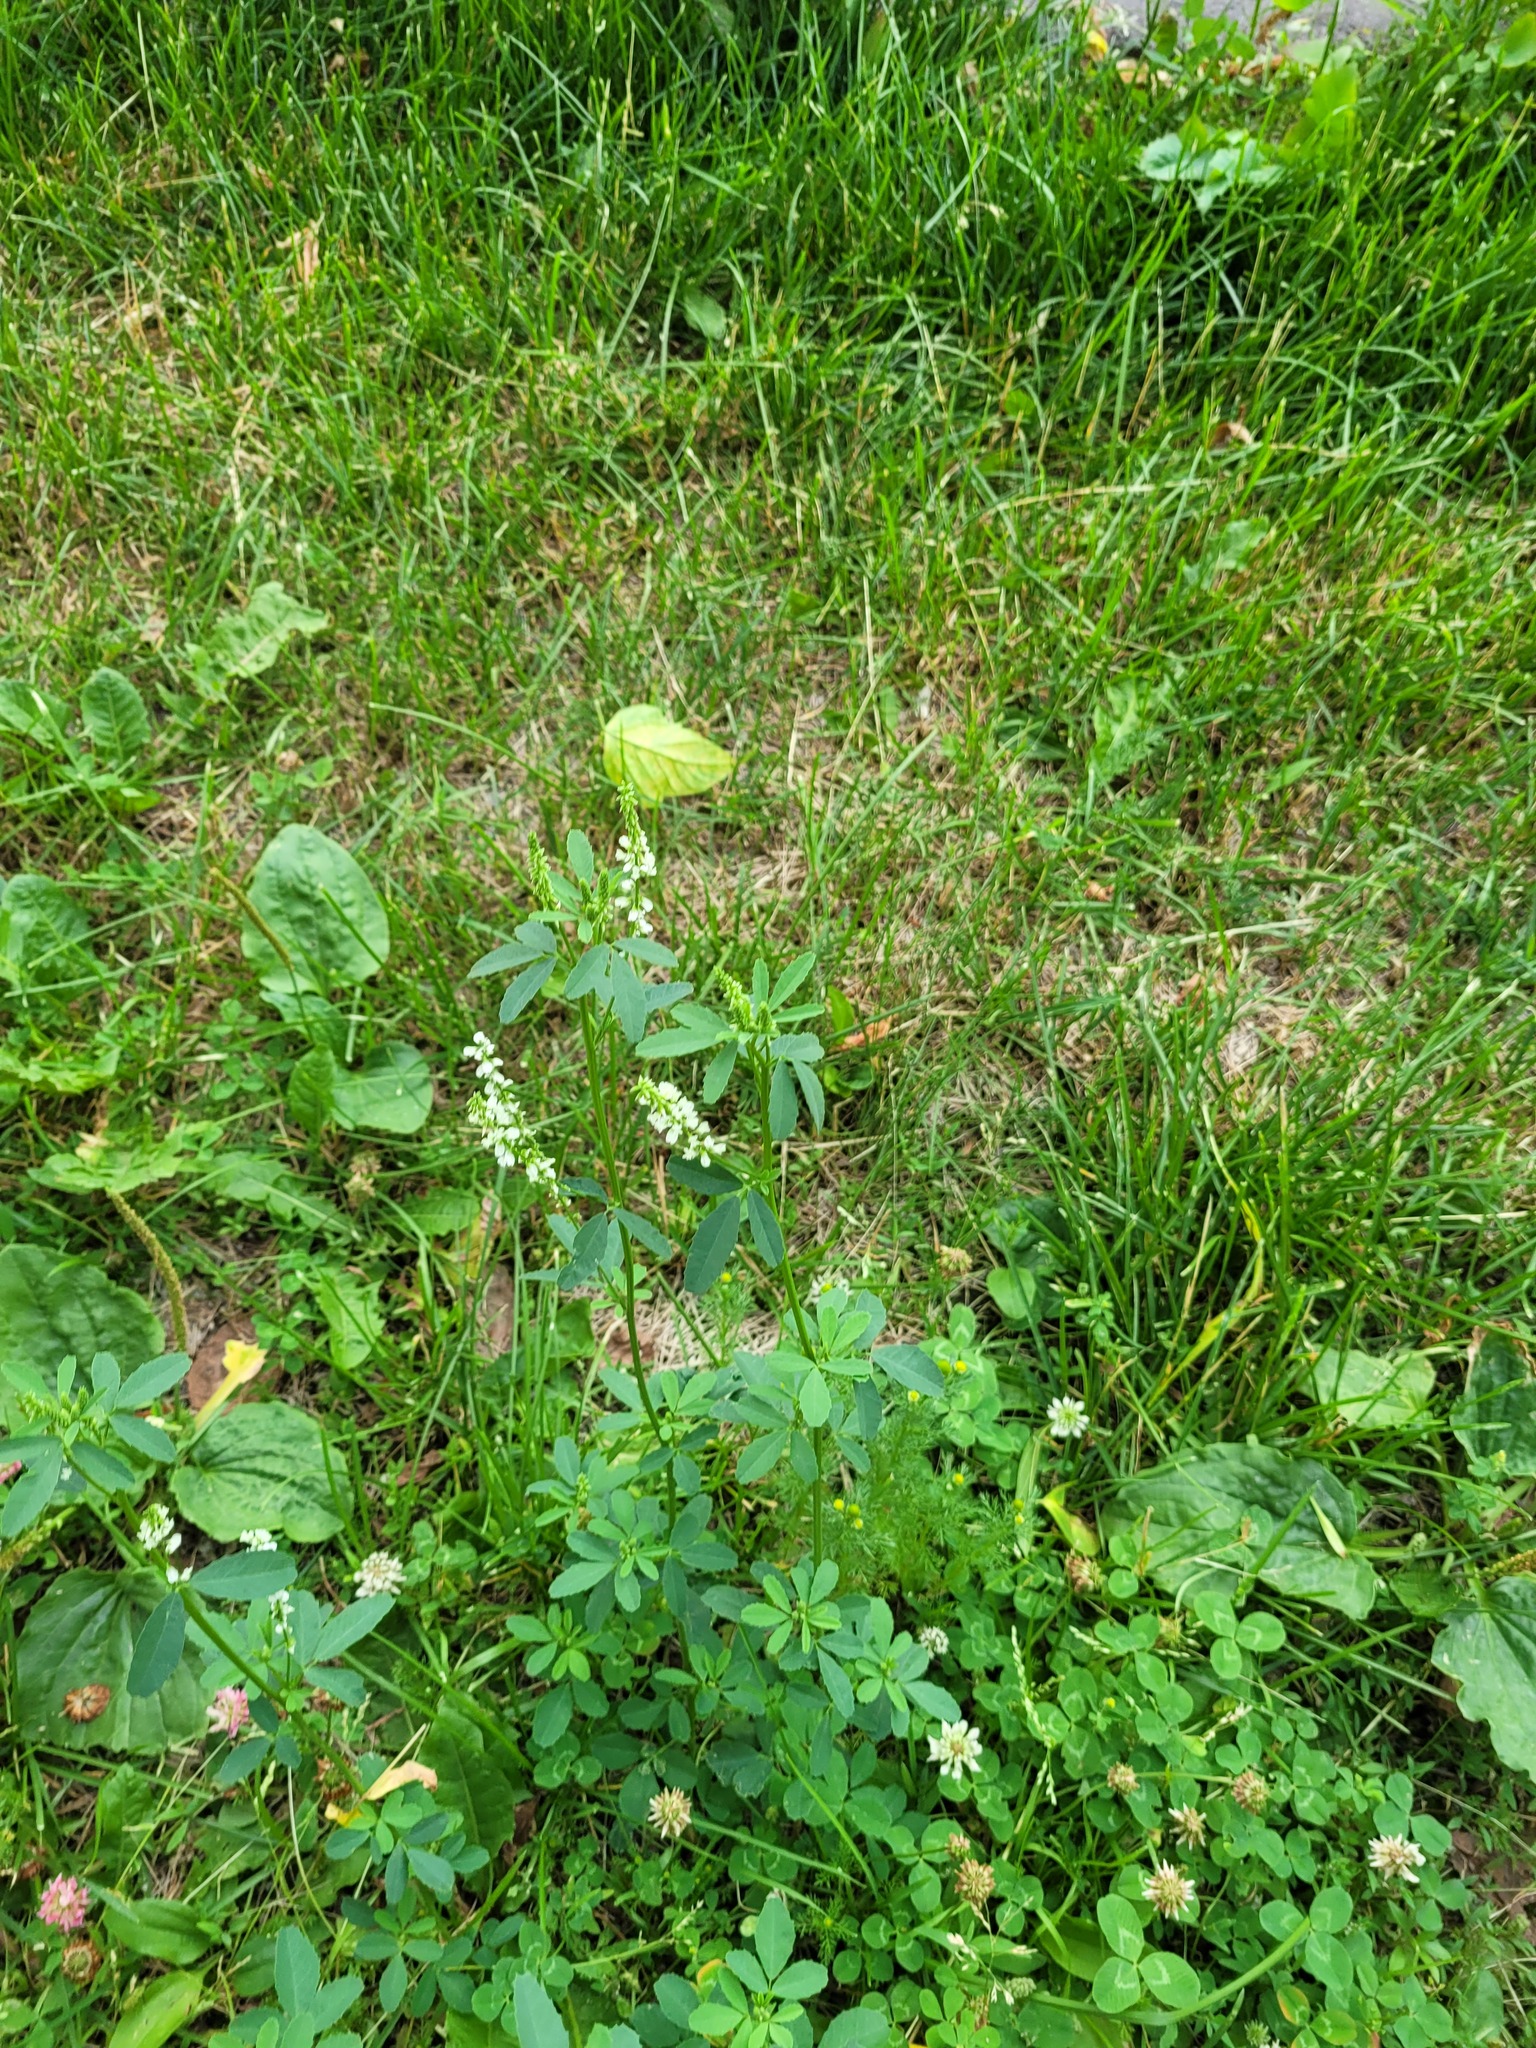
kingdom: Plantae
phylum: Tracheophyta
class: Magnoliopsida
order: Fabales
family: Fabaceae
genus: Melilotus
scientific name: Melilotus albus
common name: White melilot
